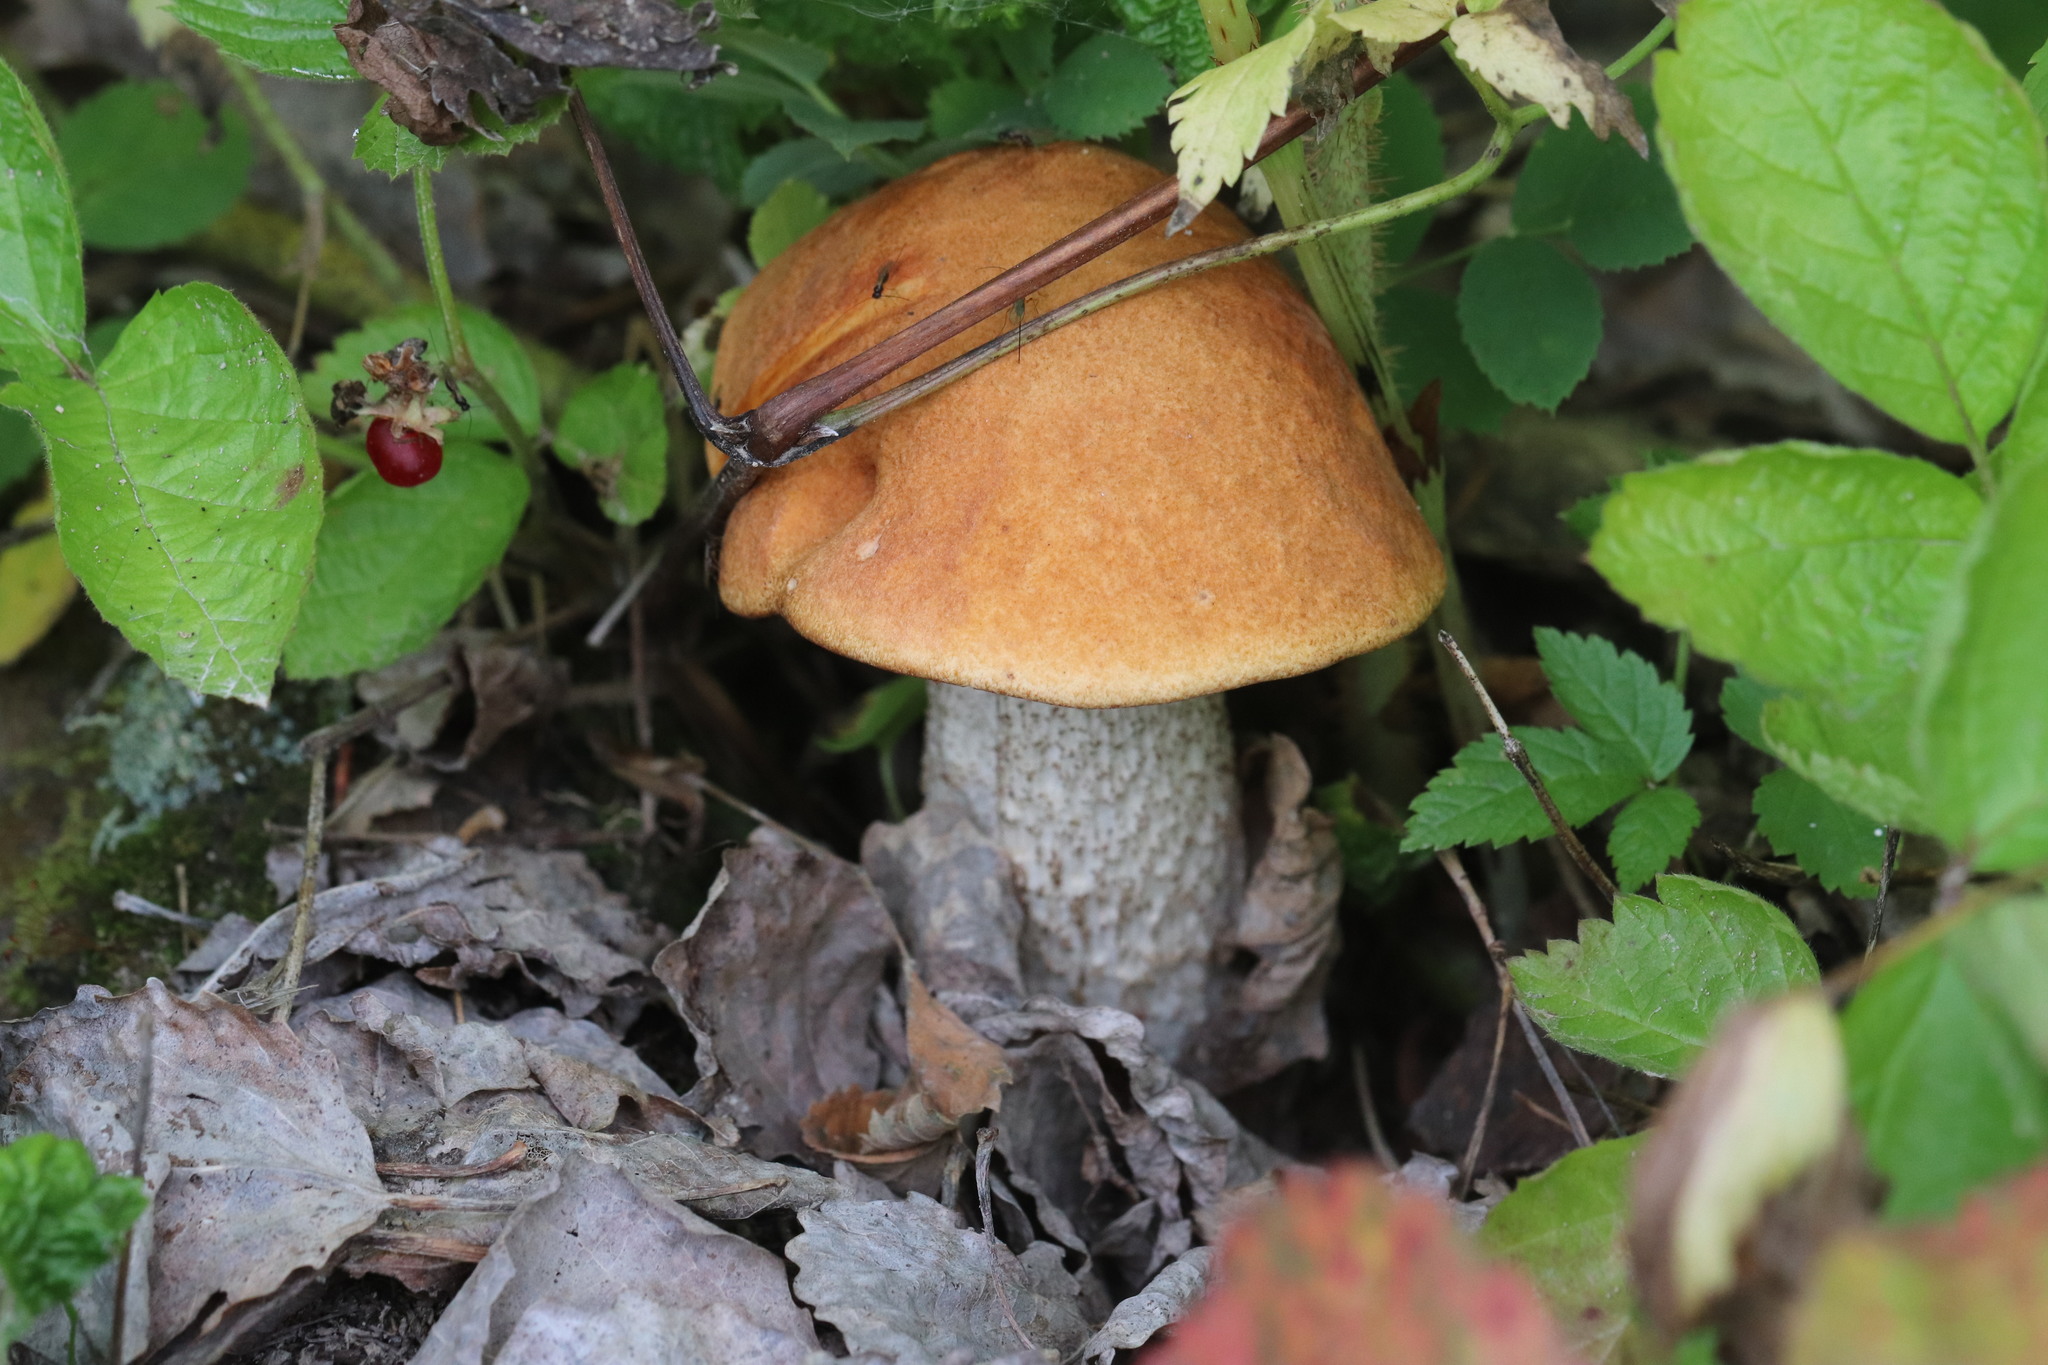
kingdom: Fungi
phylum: Basidiomycota
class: Agaricomycetes
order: Boletales
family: Boletaceae
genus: Leccinum
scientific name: Leccinum piceinum
